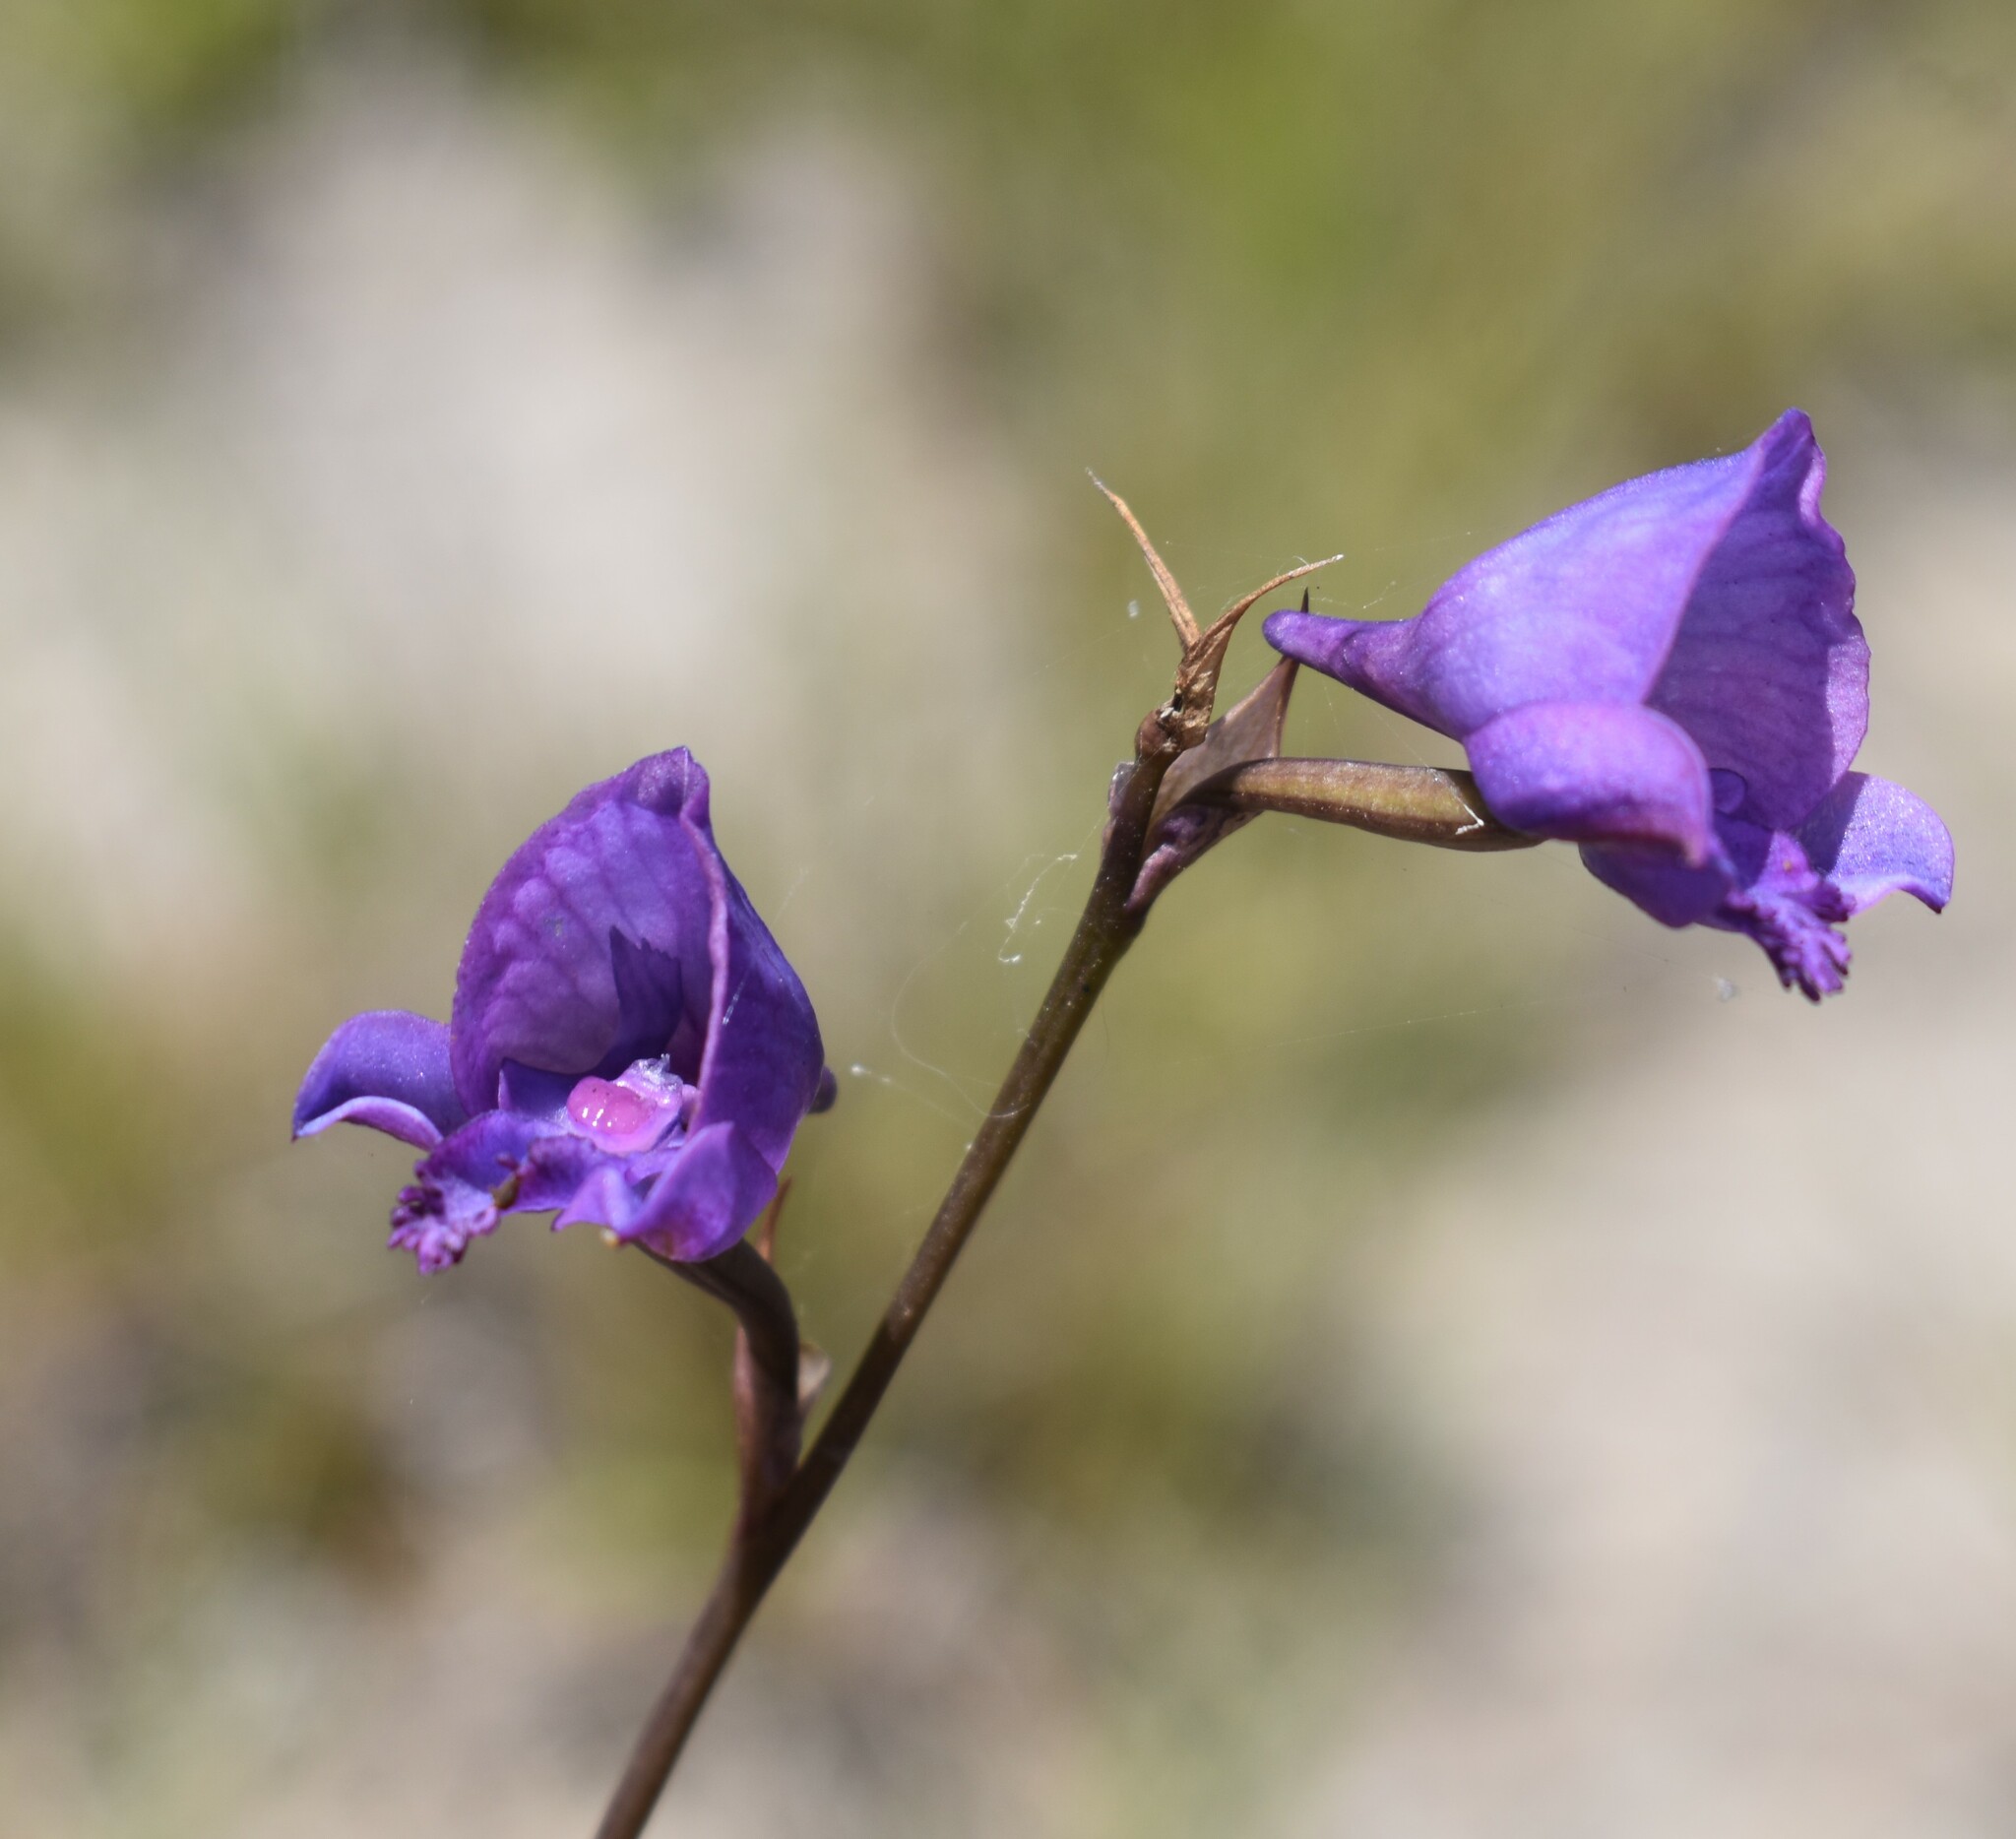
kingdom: Plantae
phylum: Tracheophyta
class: Liliopsida
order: Asparagales
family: Orchidaceae
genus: Disa
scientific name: Disa hians
